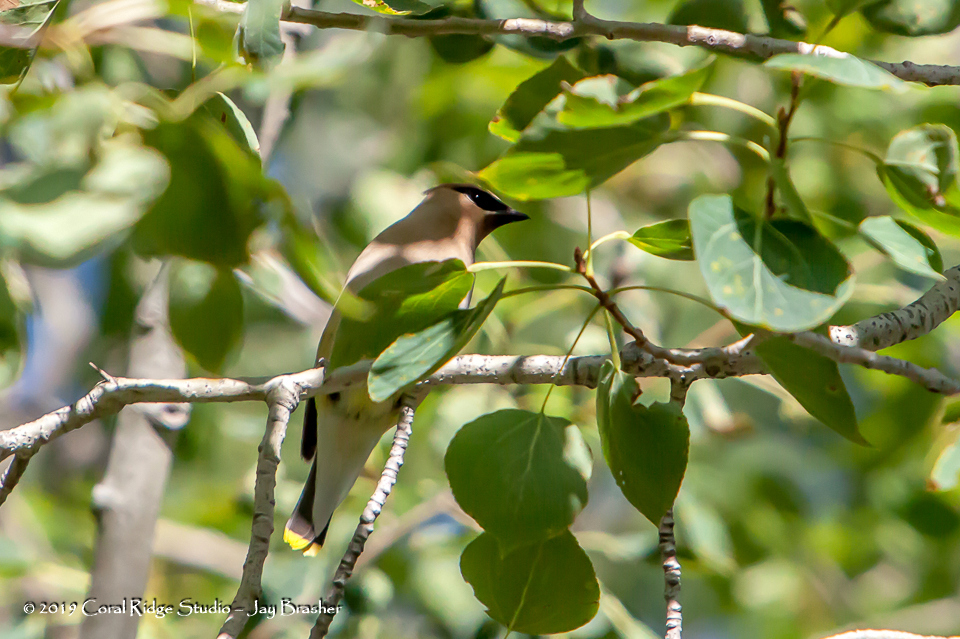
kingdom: Animalia
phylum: Chordata
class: Aves
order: Passeriformes
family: Bombycillidae
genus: Bombycilla
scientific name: Bombycilla cedrorum
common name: Cedar waxwing
